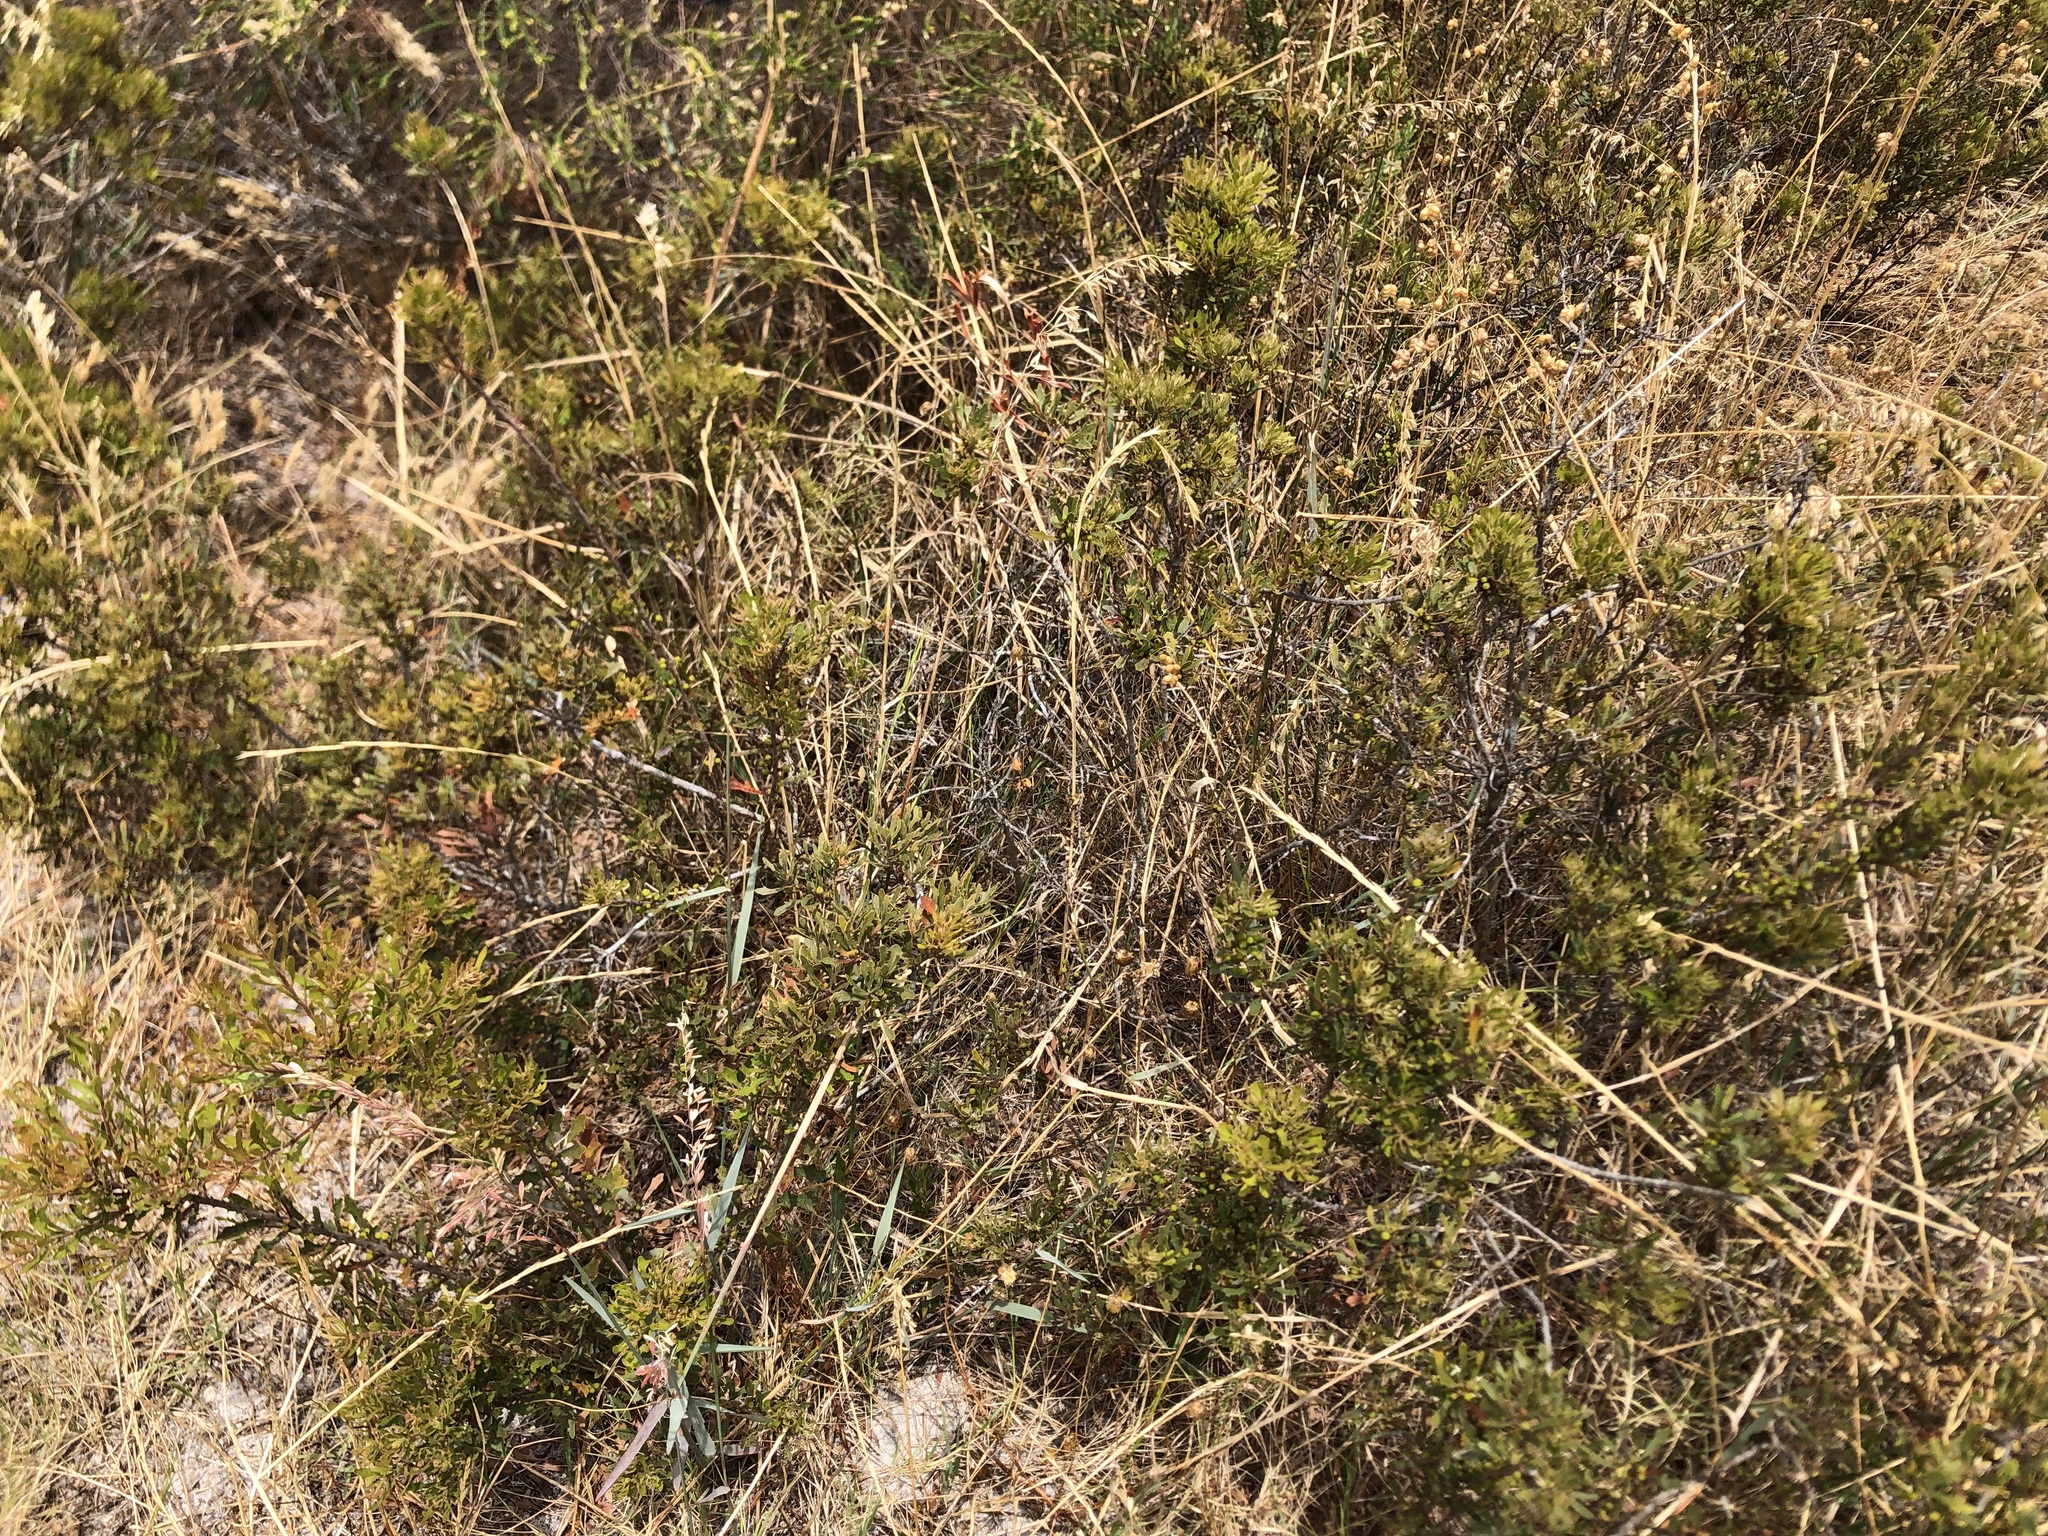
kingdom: Plantae
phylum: Tracheophyta
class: Magnoliopsida
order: Fagales
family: Myricaceae
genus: Morella
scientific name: Morella quercifolia
